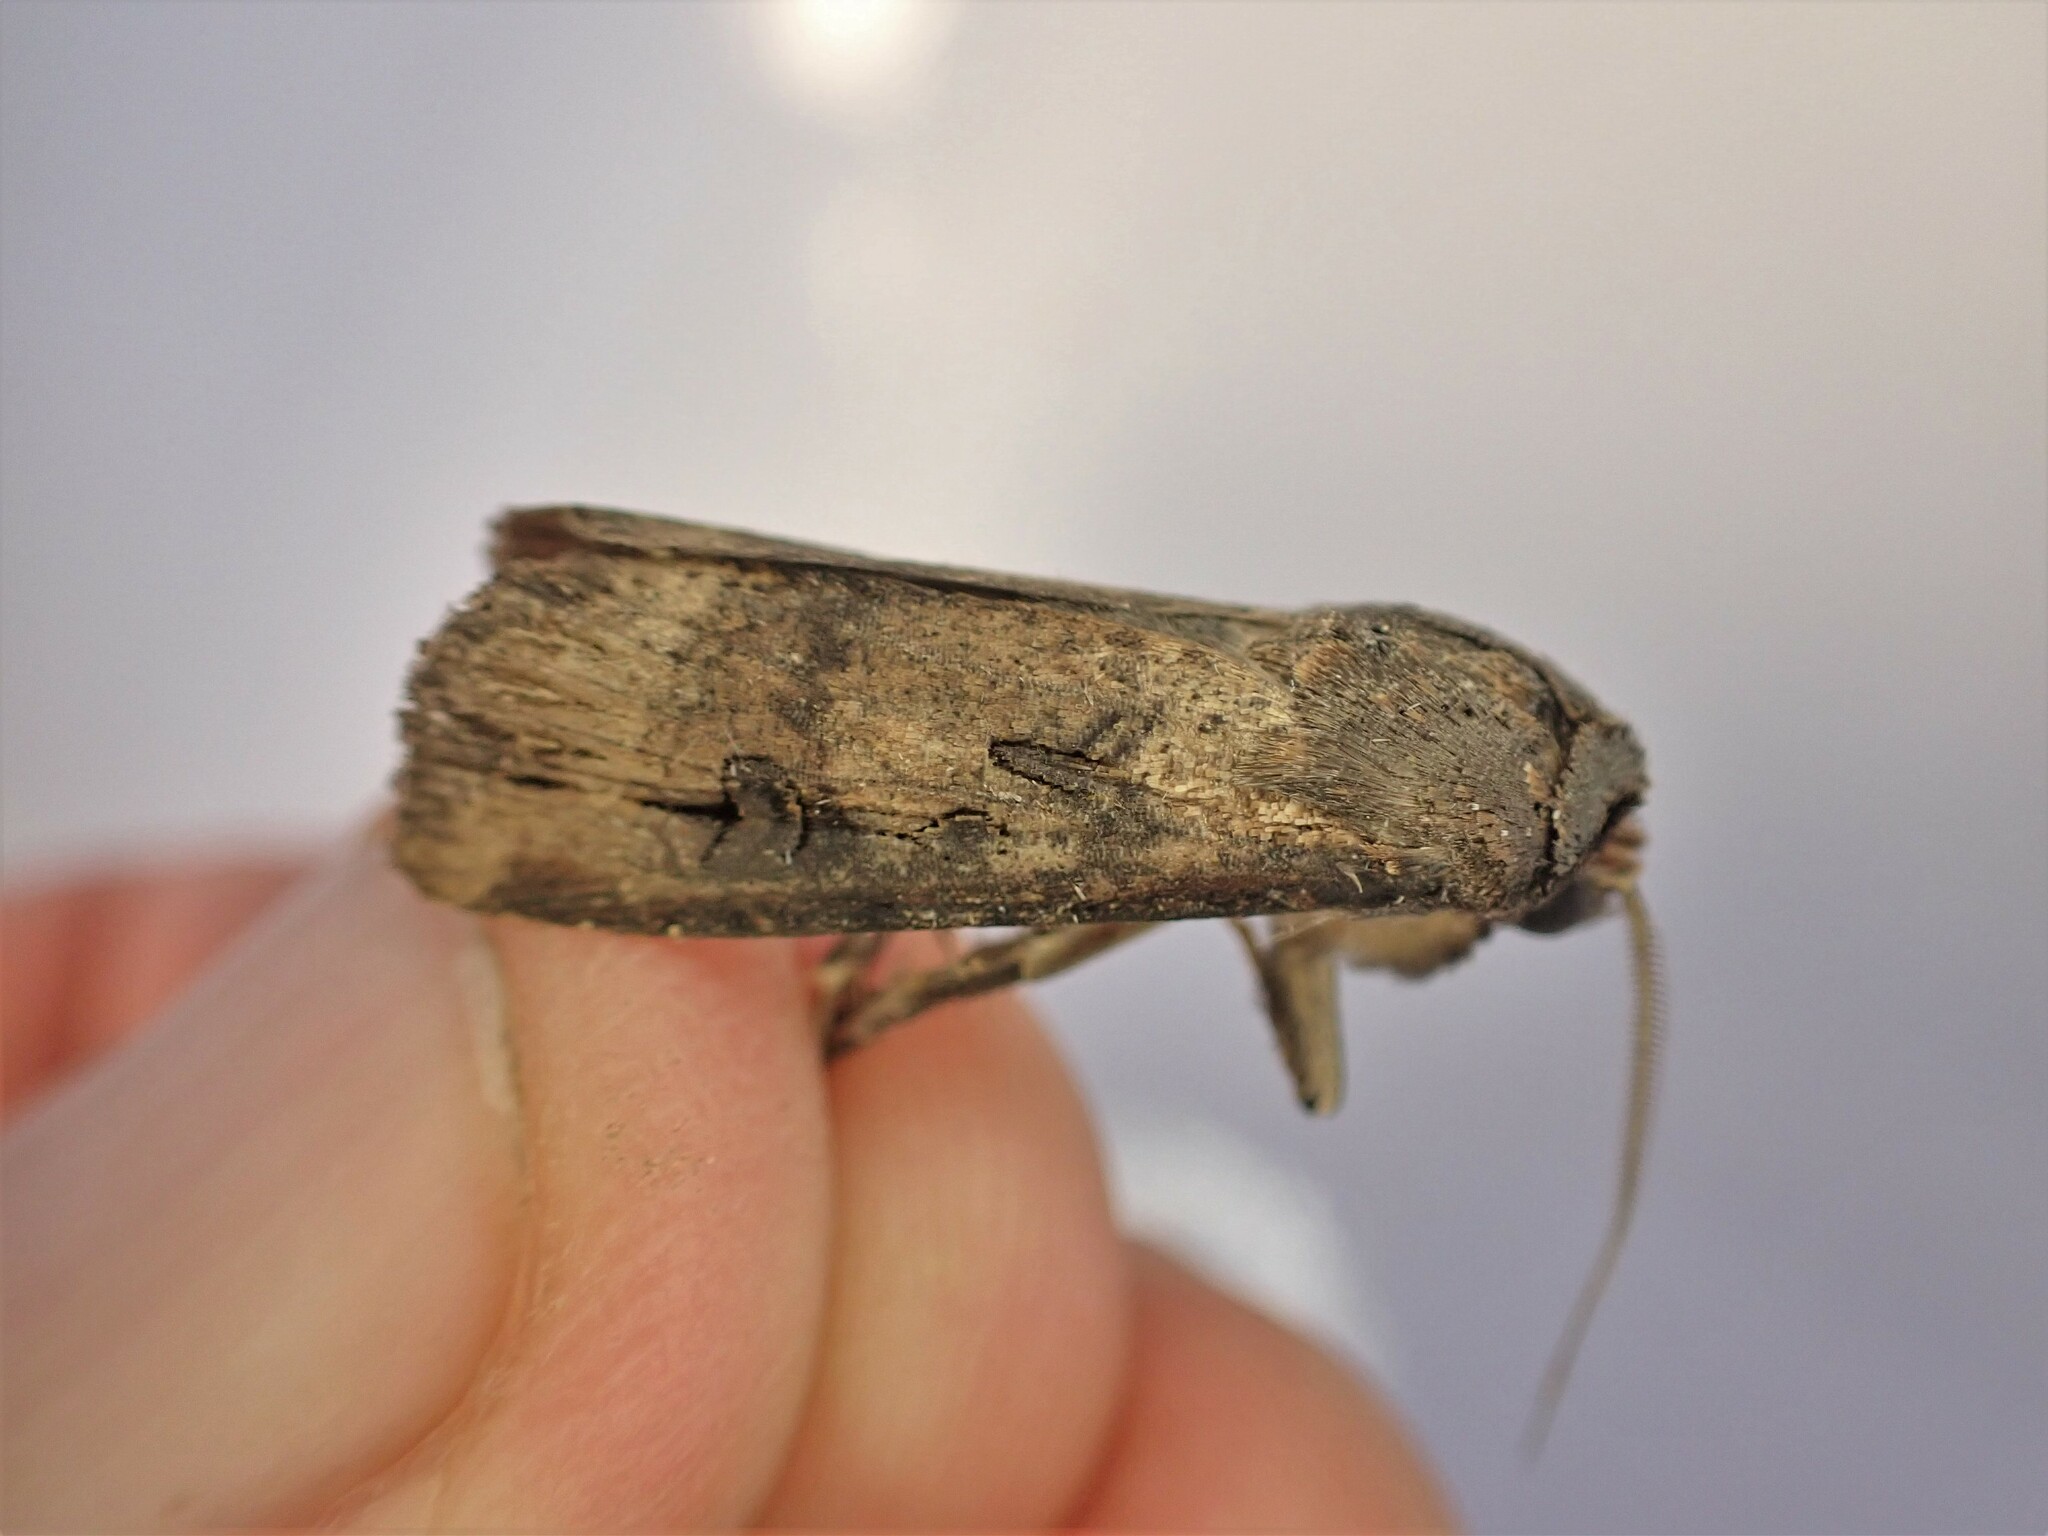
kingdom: Animalia
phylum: Arthropoda
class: Insecta
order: Lepidoptera
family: Noctuidae
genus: Agrotis
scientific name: Agrotis ipsilon
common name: Dark sword-grass
